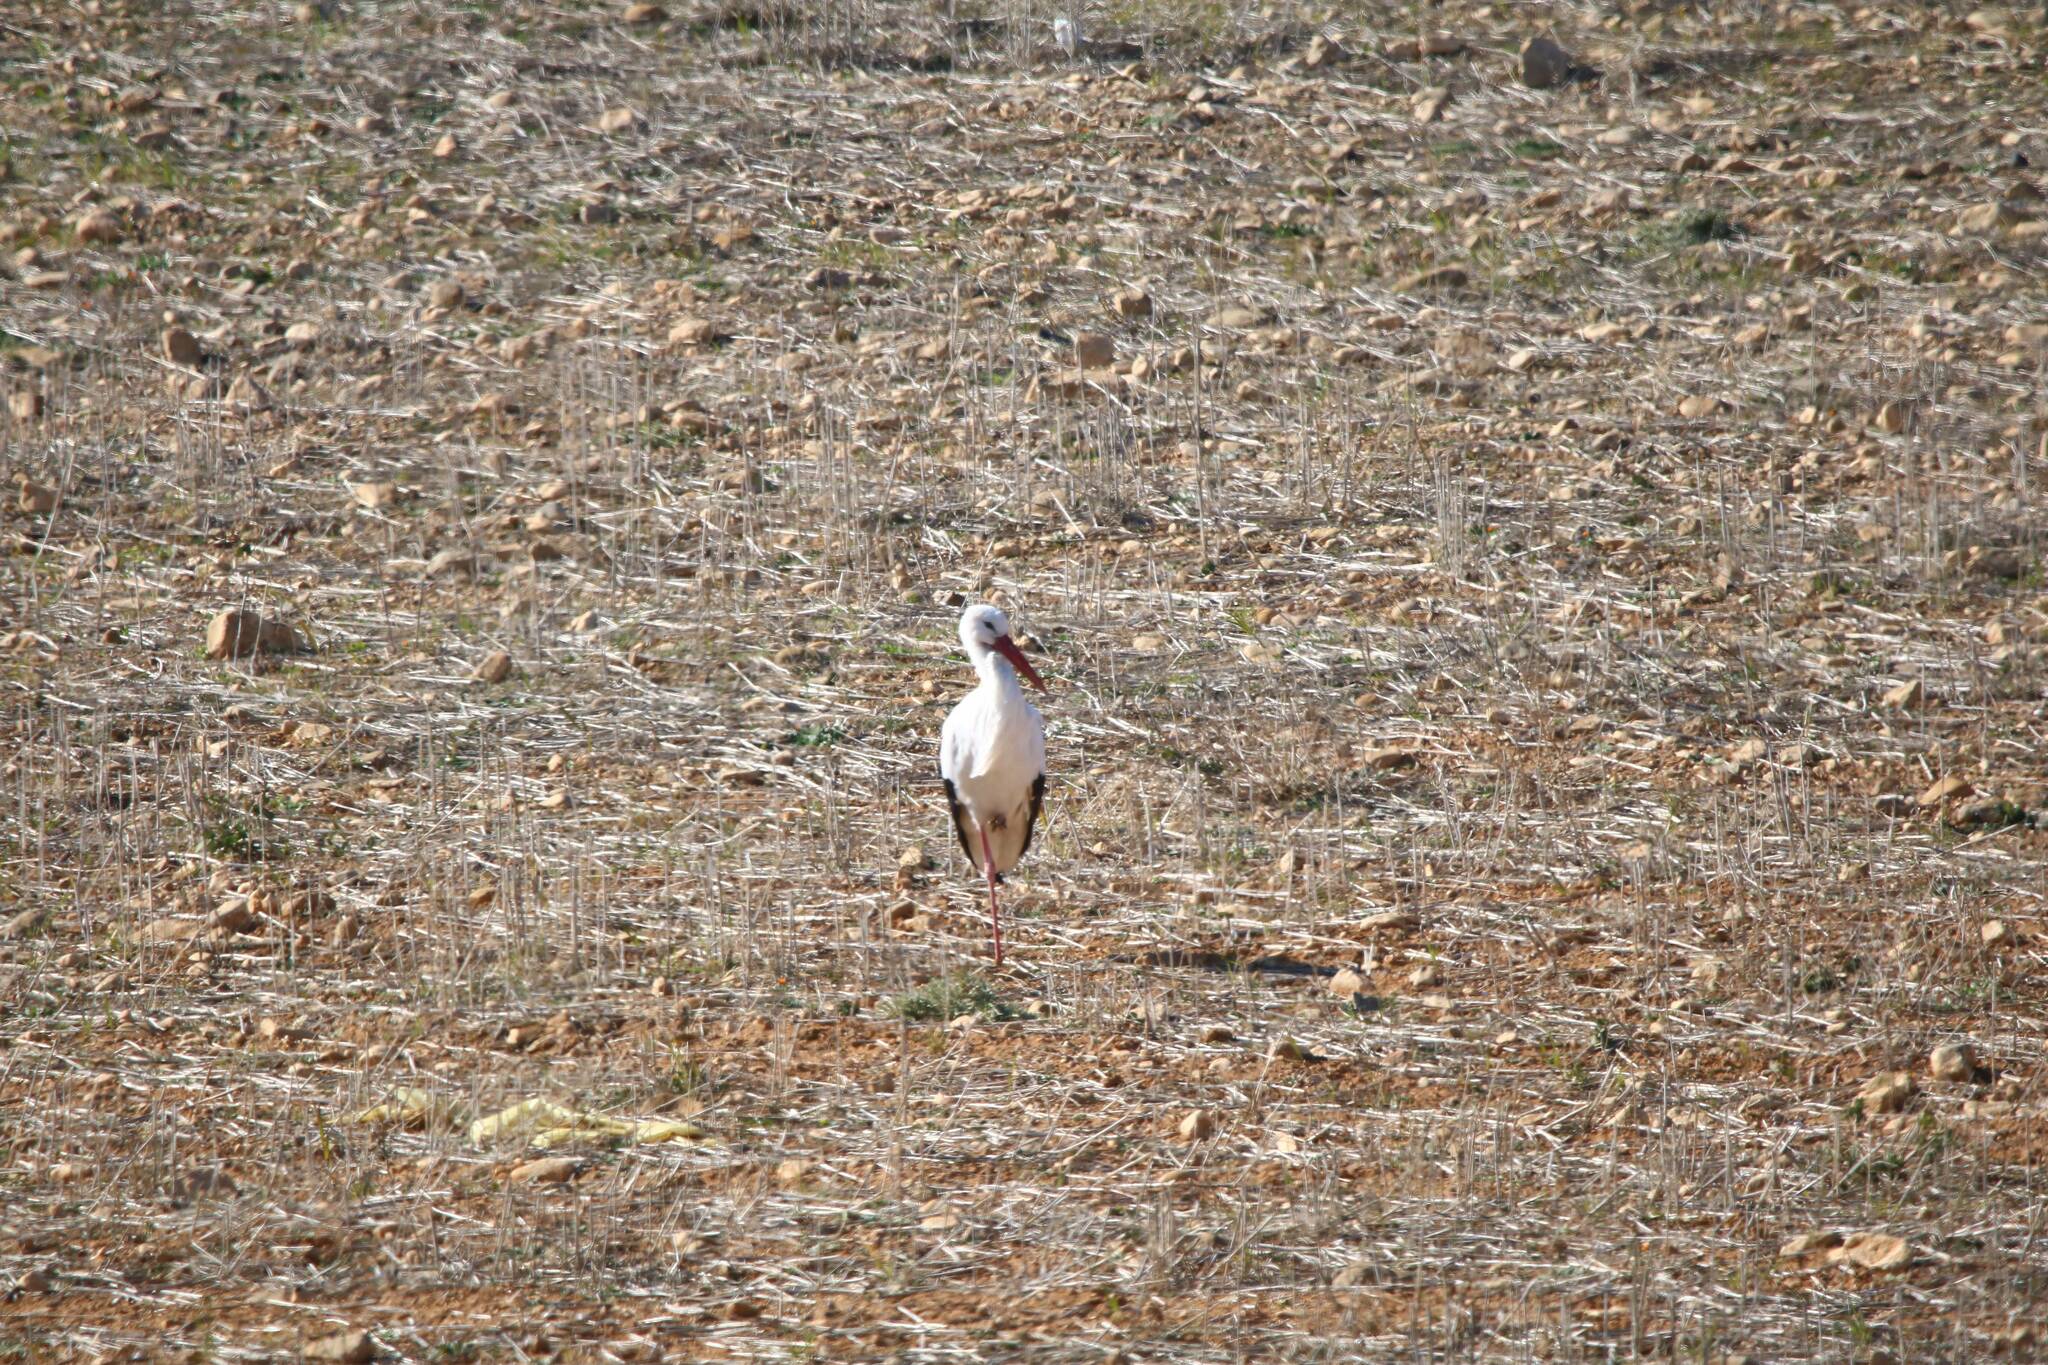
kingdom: Animalia
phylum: Chordata
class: Aves
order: Ciconiiformes
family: Ciconiidae
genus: Ciconia
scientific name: Ciconia ciconia
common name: White stork
